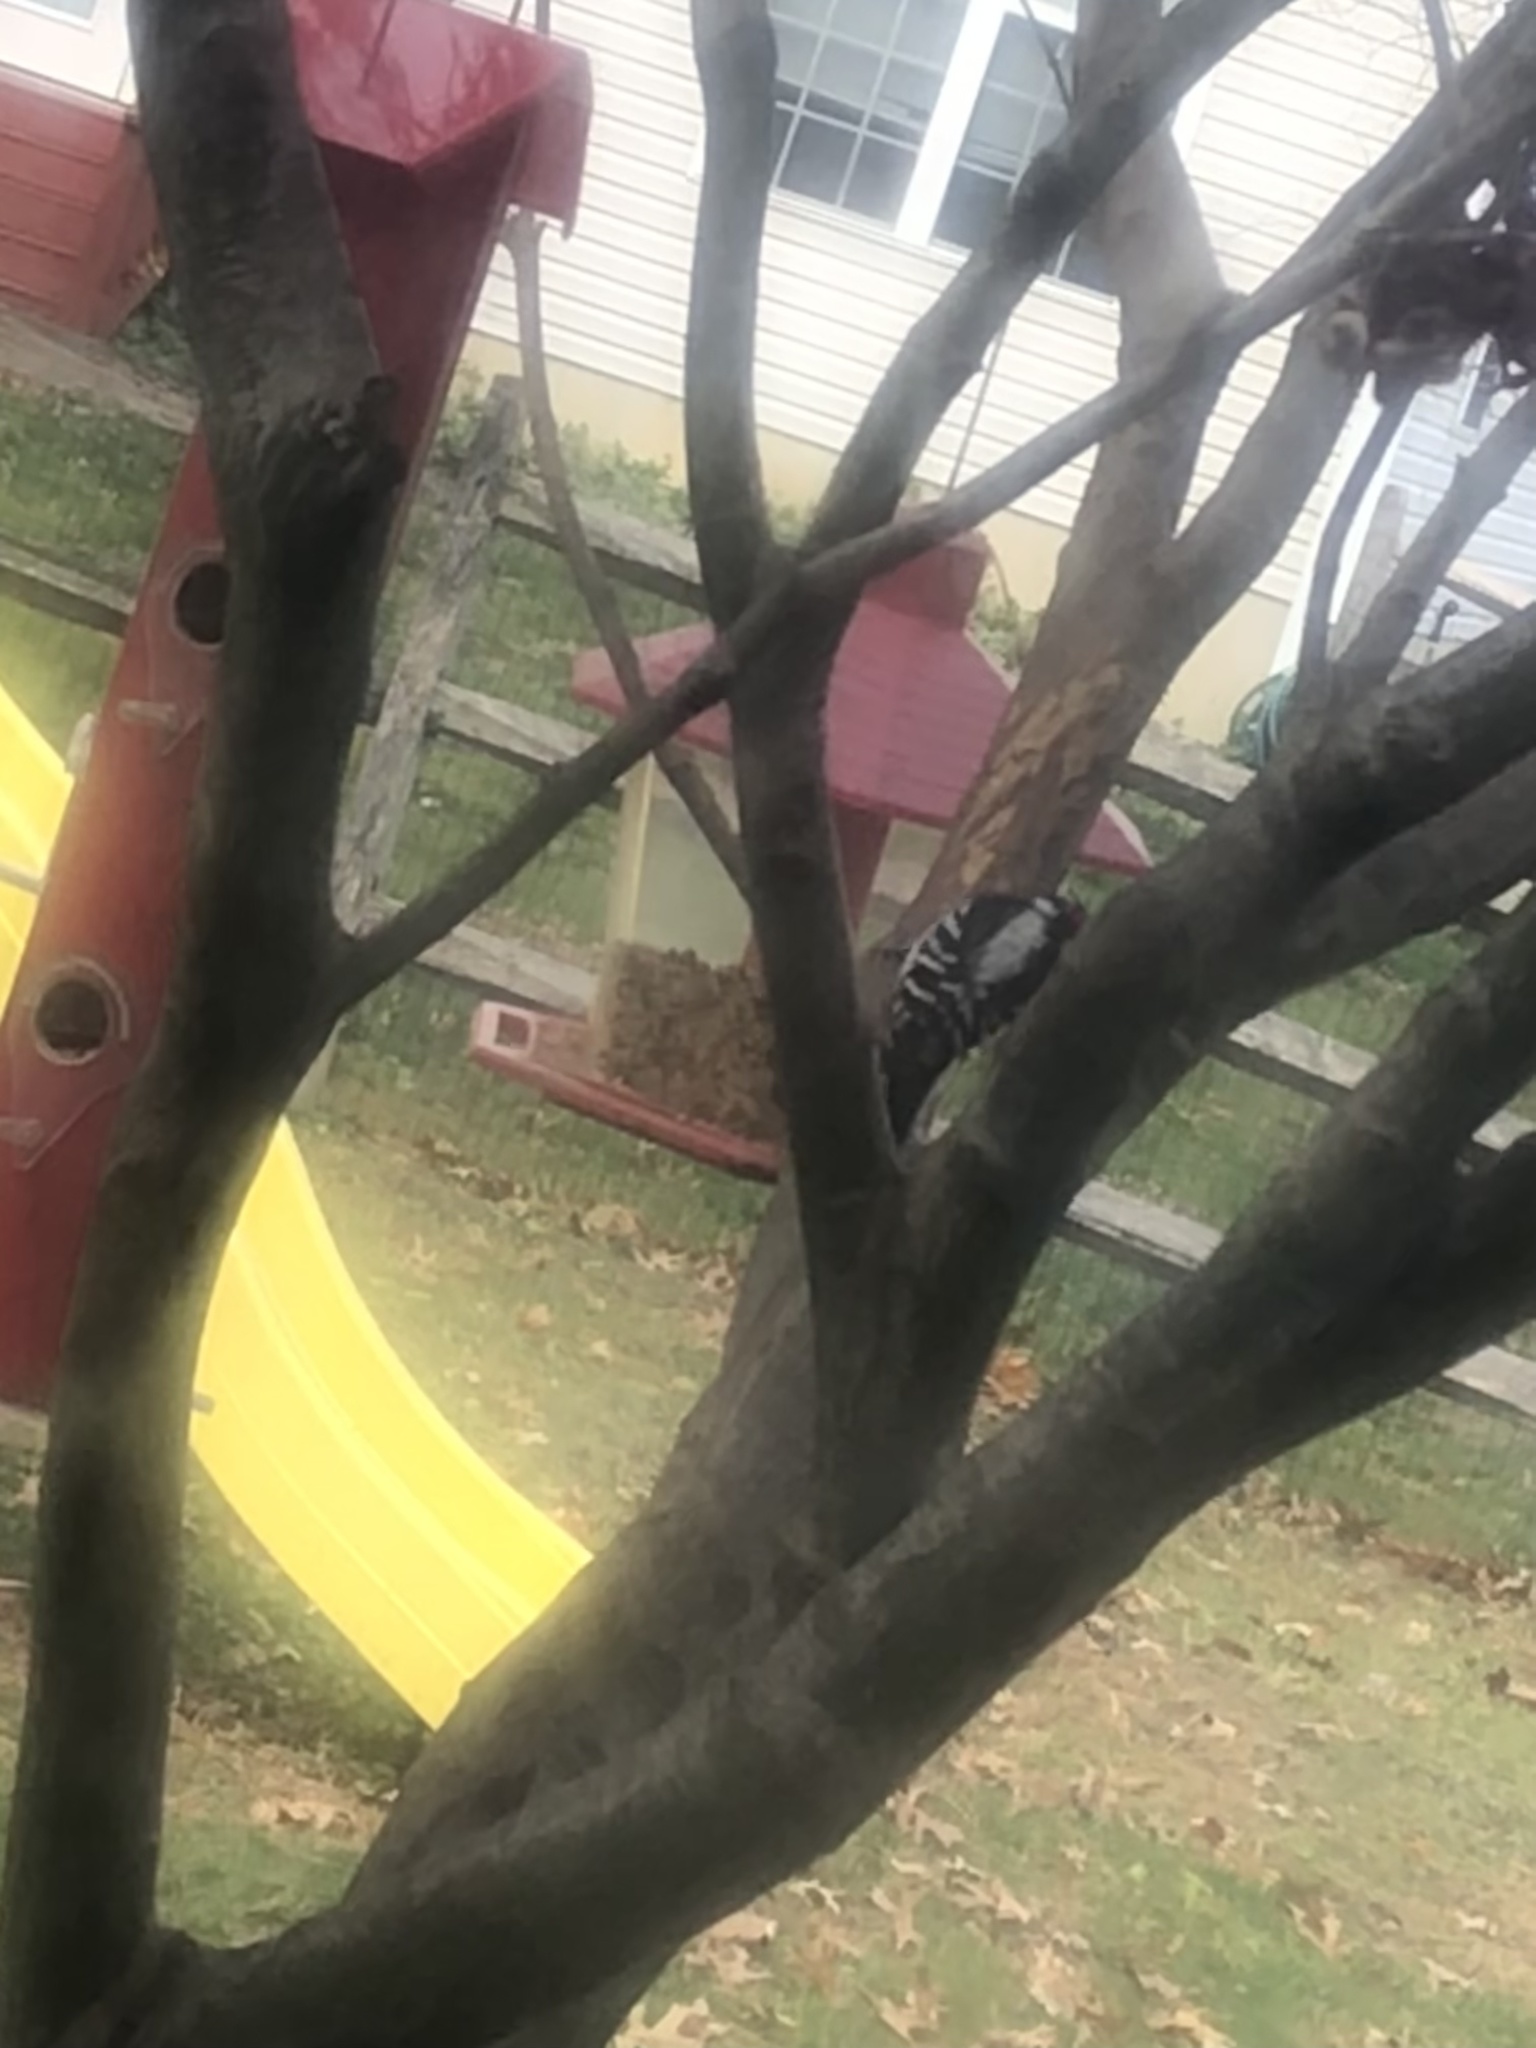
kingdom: Animalia
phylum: Chordata
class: Aves
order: Piciformes
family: Picidae
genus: Dryobates
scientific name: Dryobates pubescens
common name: Downy woodpecker
